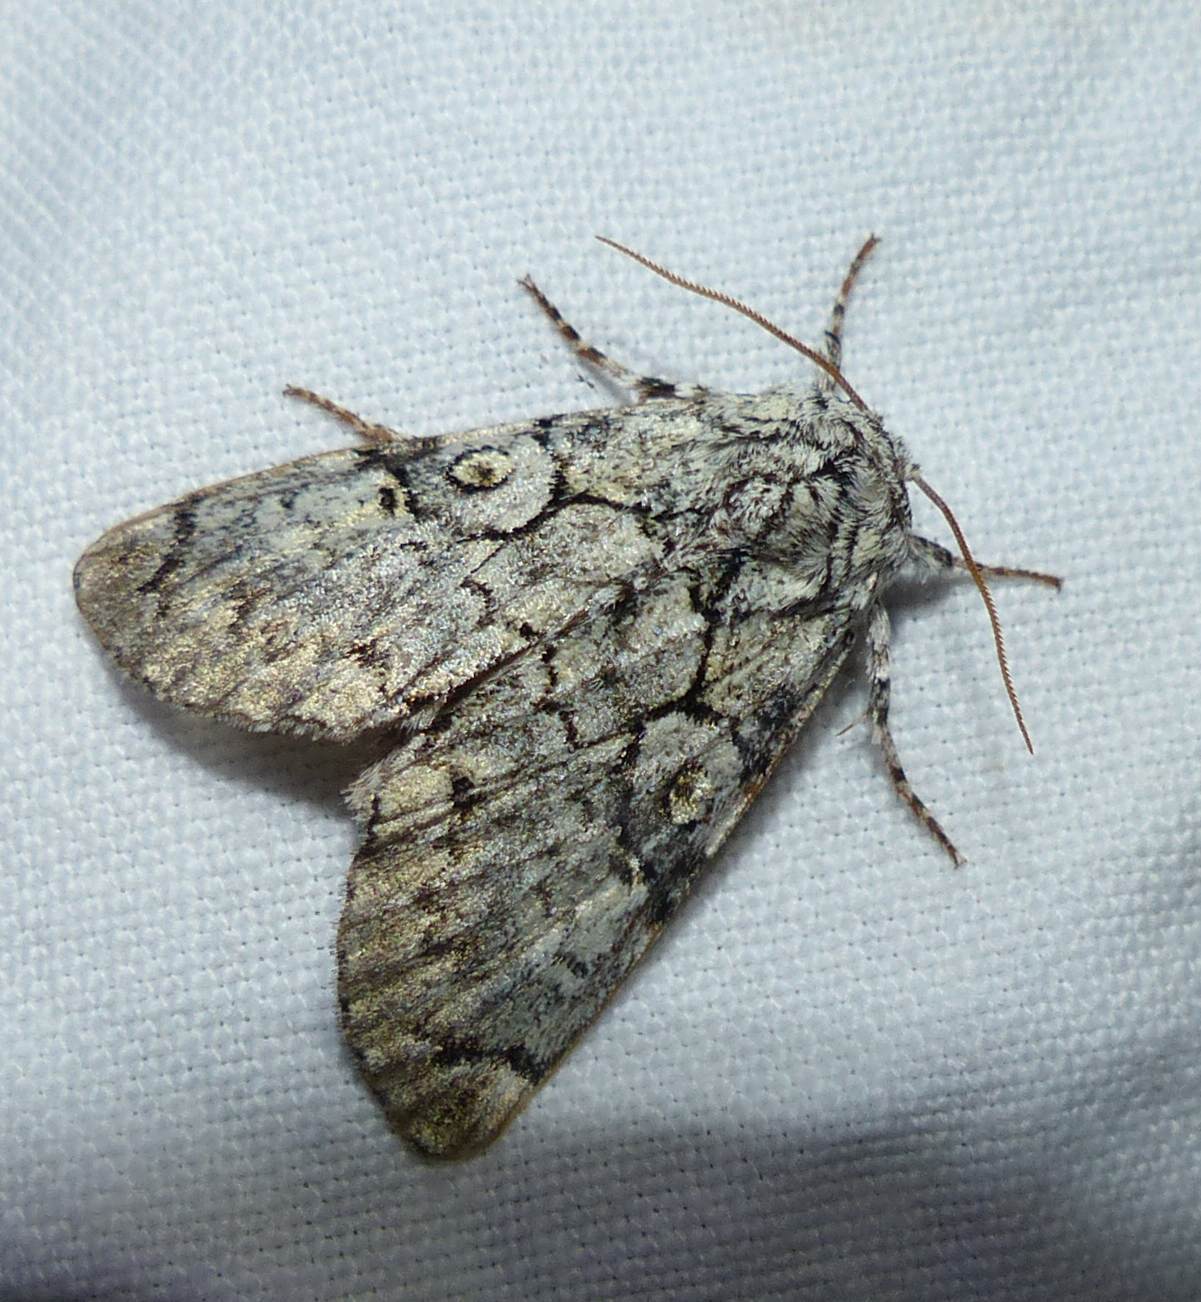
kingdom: Animalia
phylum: Arthropoda
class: Insecta
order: Lepidoptera
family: Noctuidae
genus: Charadra
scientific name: Charadra deridens
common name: Marbled tuffet
